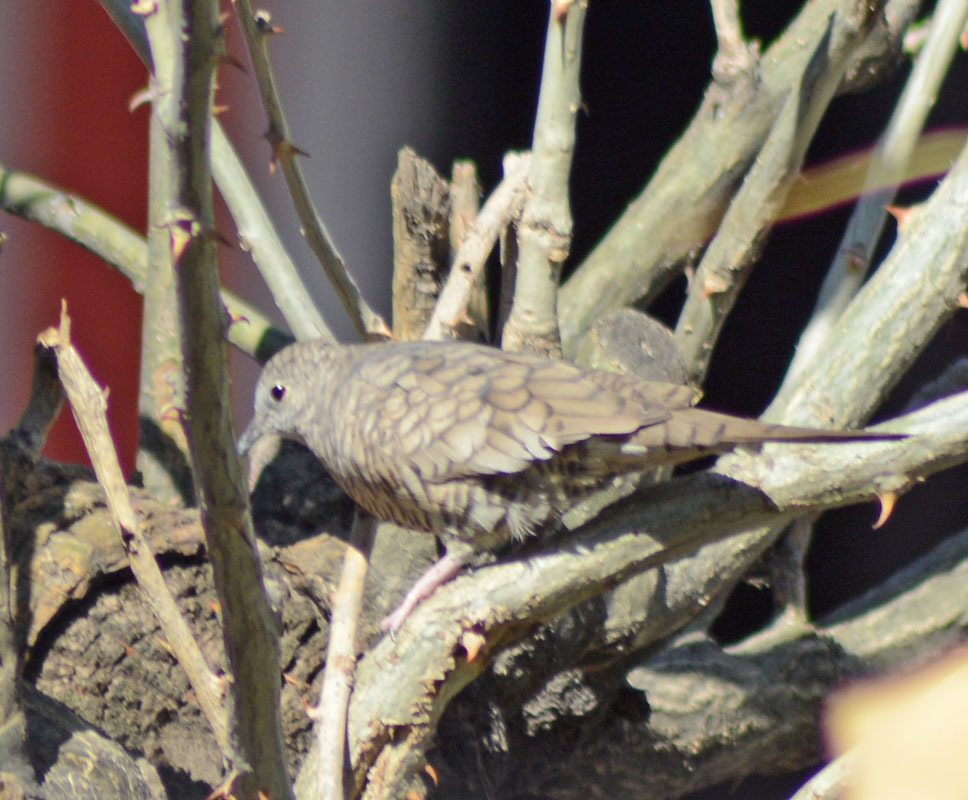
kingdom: Animalia
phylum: Chordata
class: Aves
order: Columbiformes
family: Columbidae
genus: Columbina
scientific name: Columbina inca
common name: Inca dove
